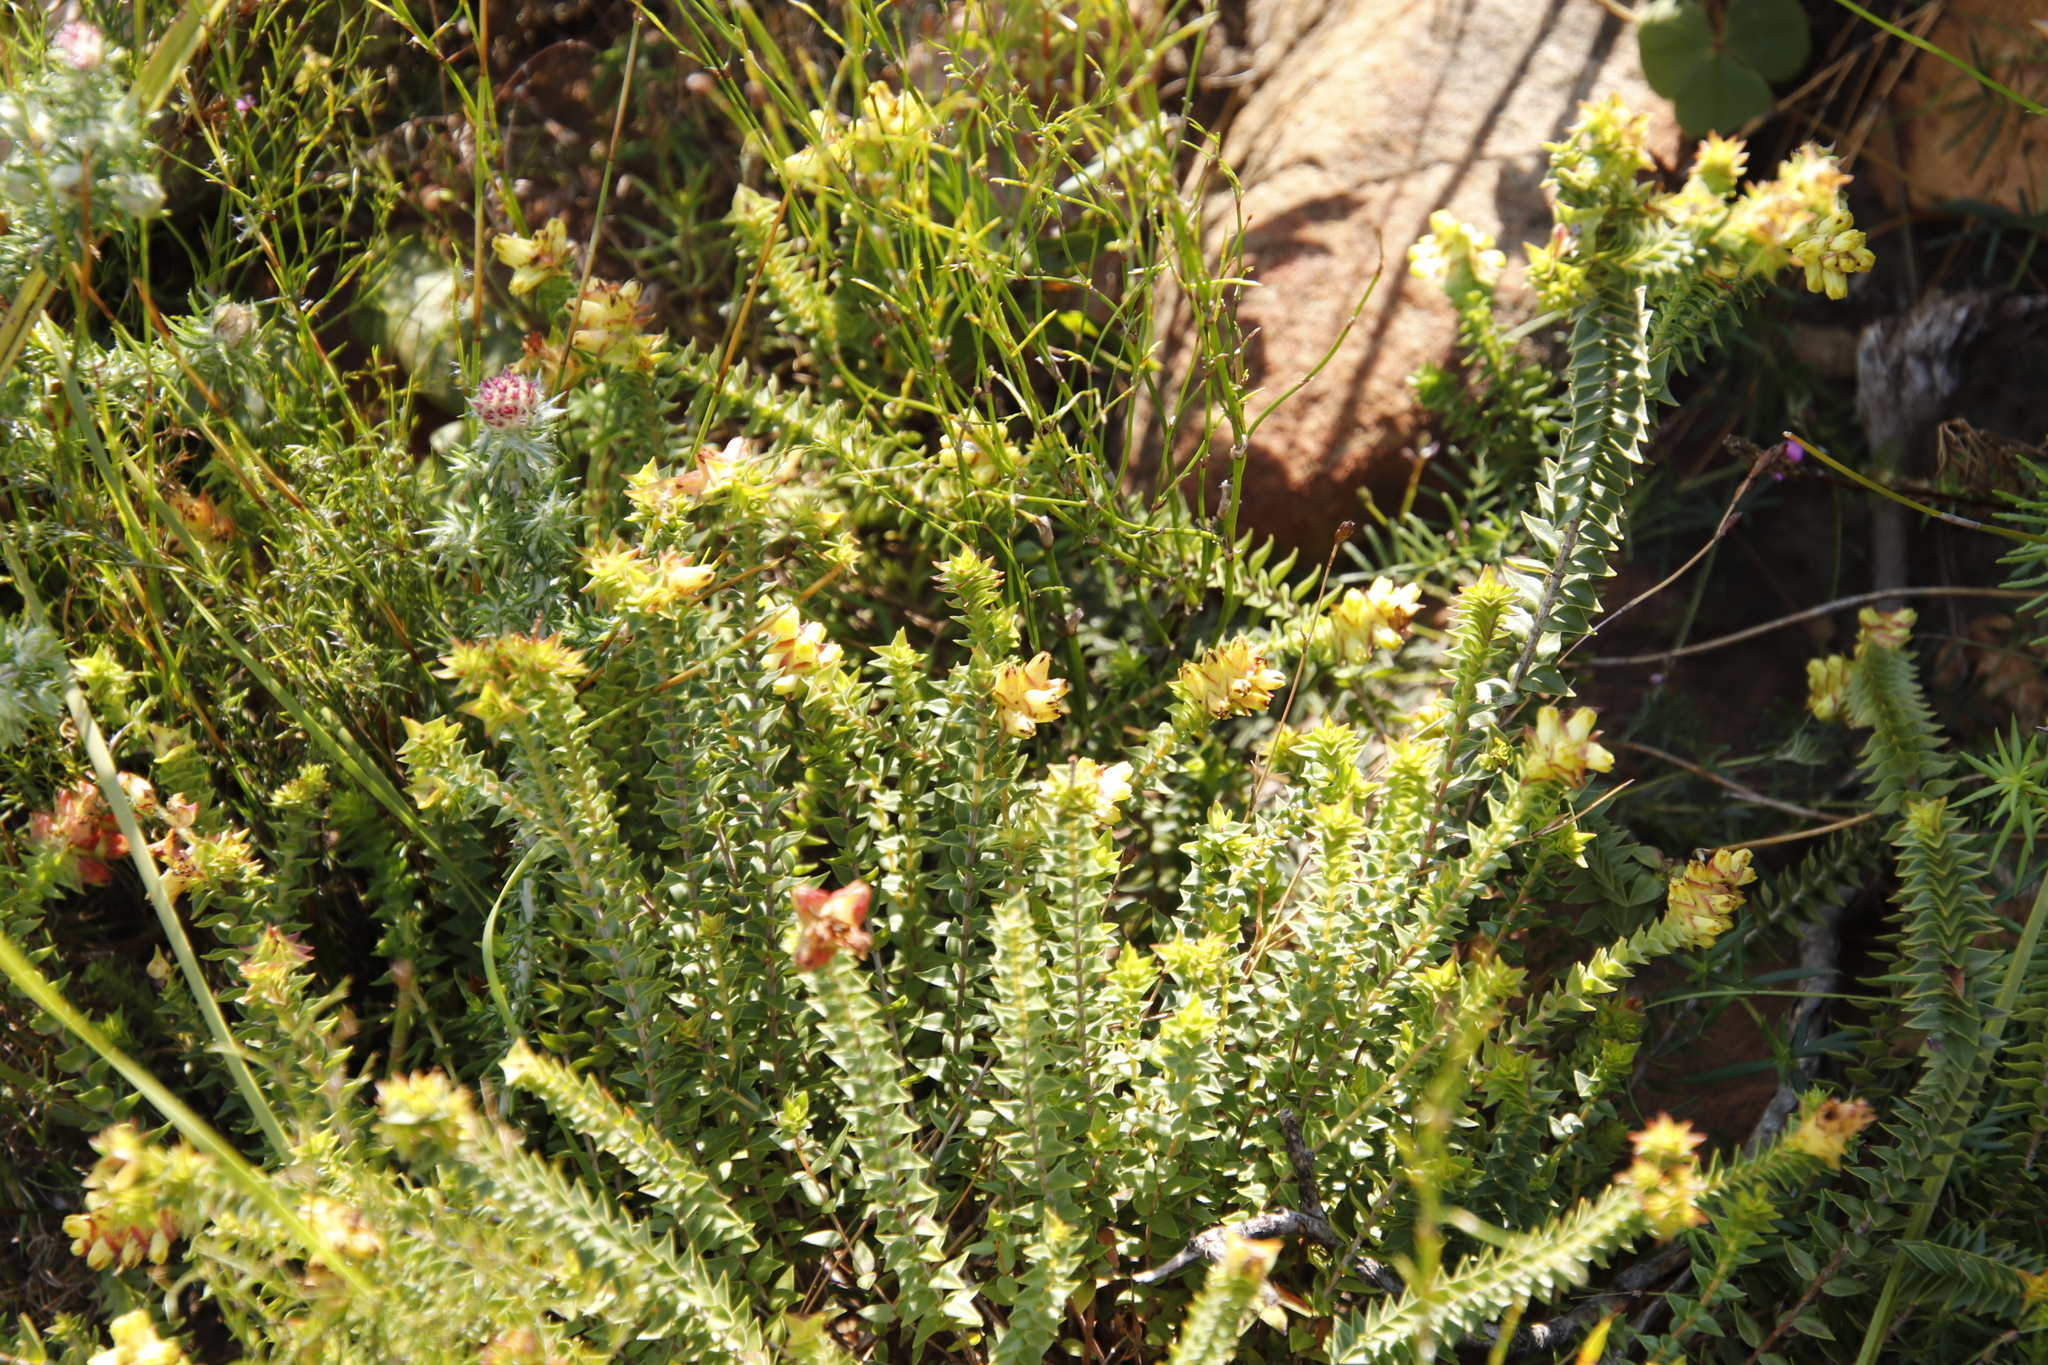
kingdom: Plantae
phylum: Tracheophyta
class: Magnoliopsida
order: Myrtales
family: Penaeaceae
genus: Penaea
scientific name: Penaea mucronata
